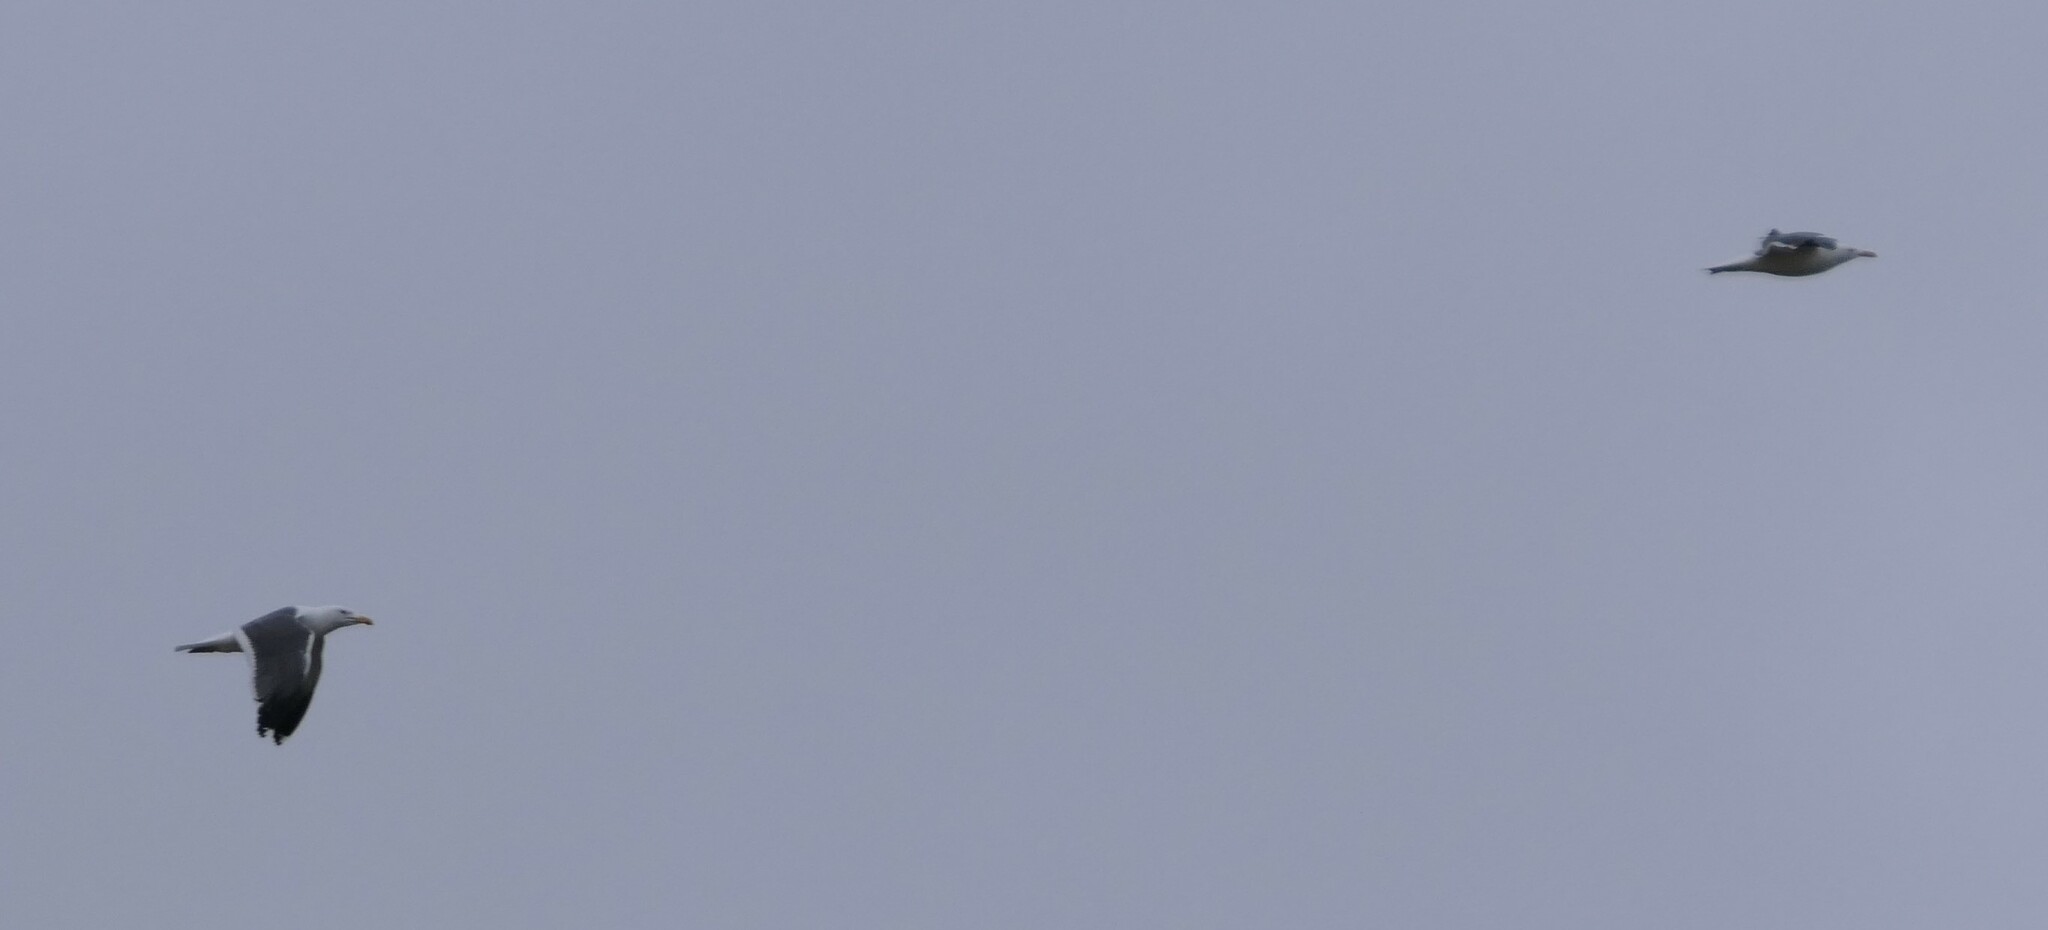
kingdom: Animalia
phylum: Chordata
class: Aves
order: Charadriiformes
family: Laridae
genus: Larus
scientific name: Larus fuscus
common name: Lesser black-backed gull
